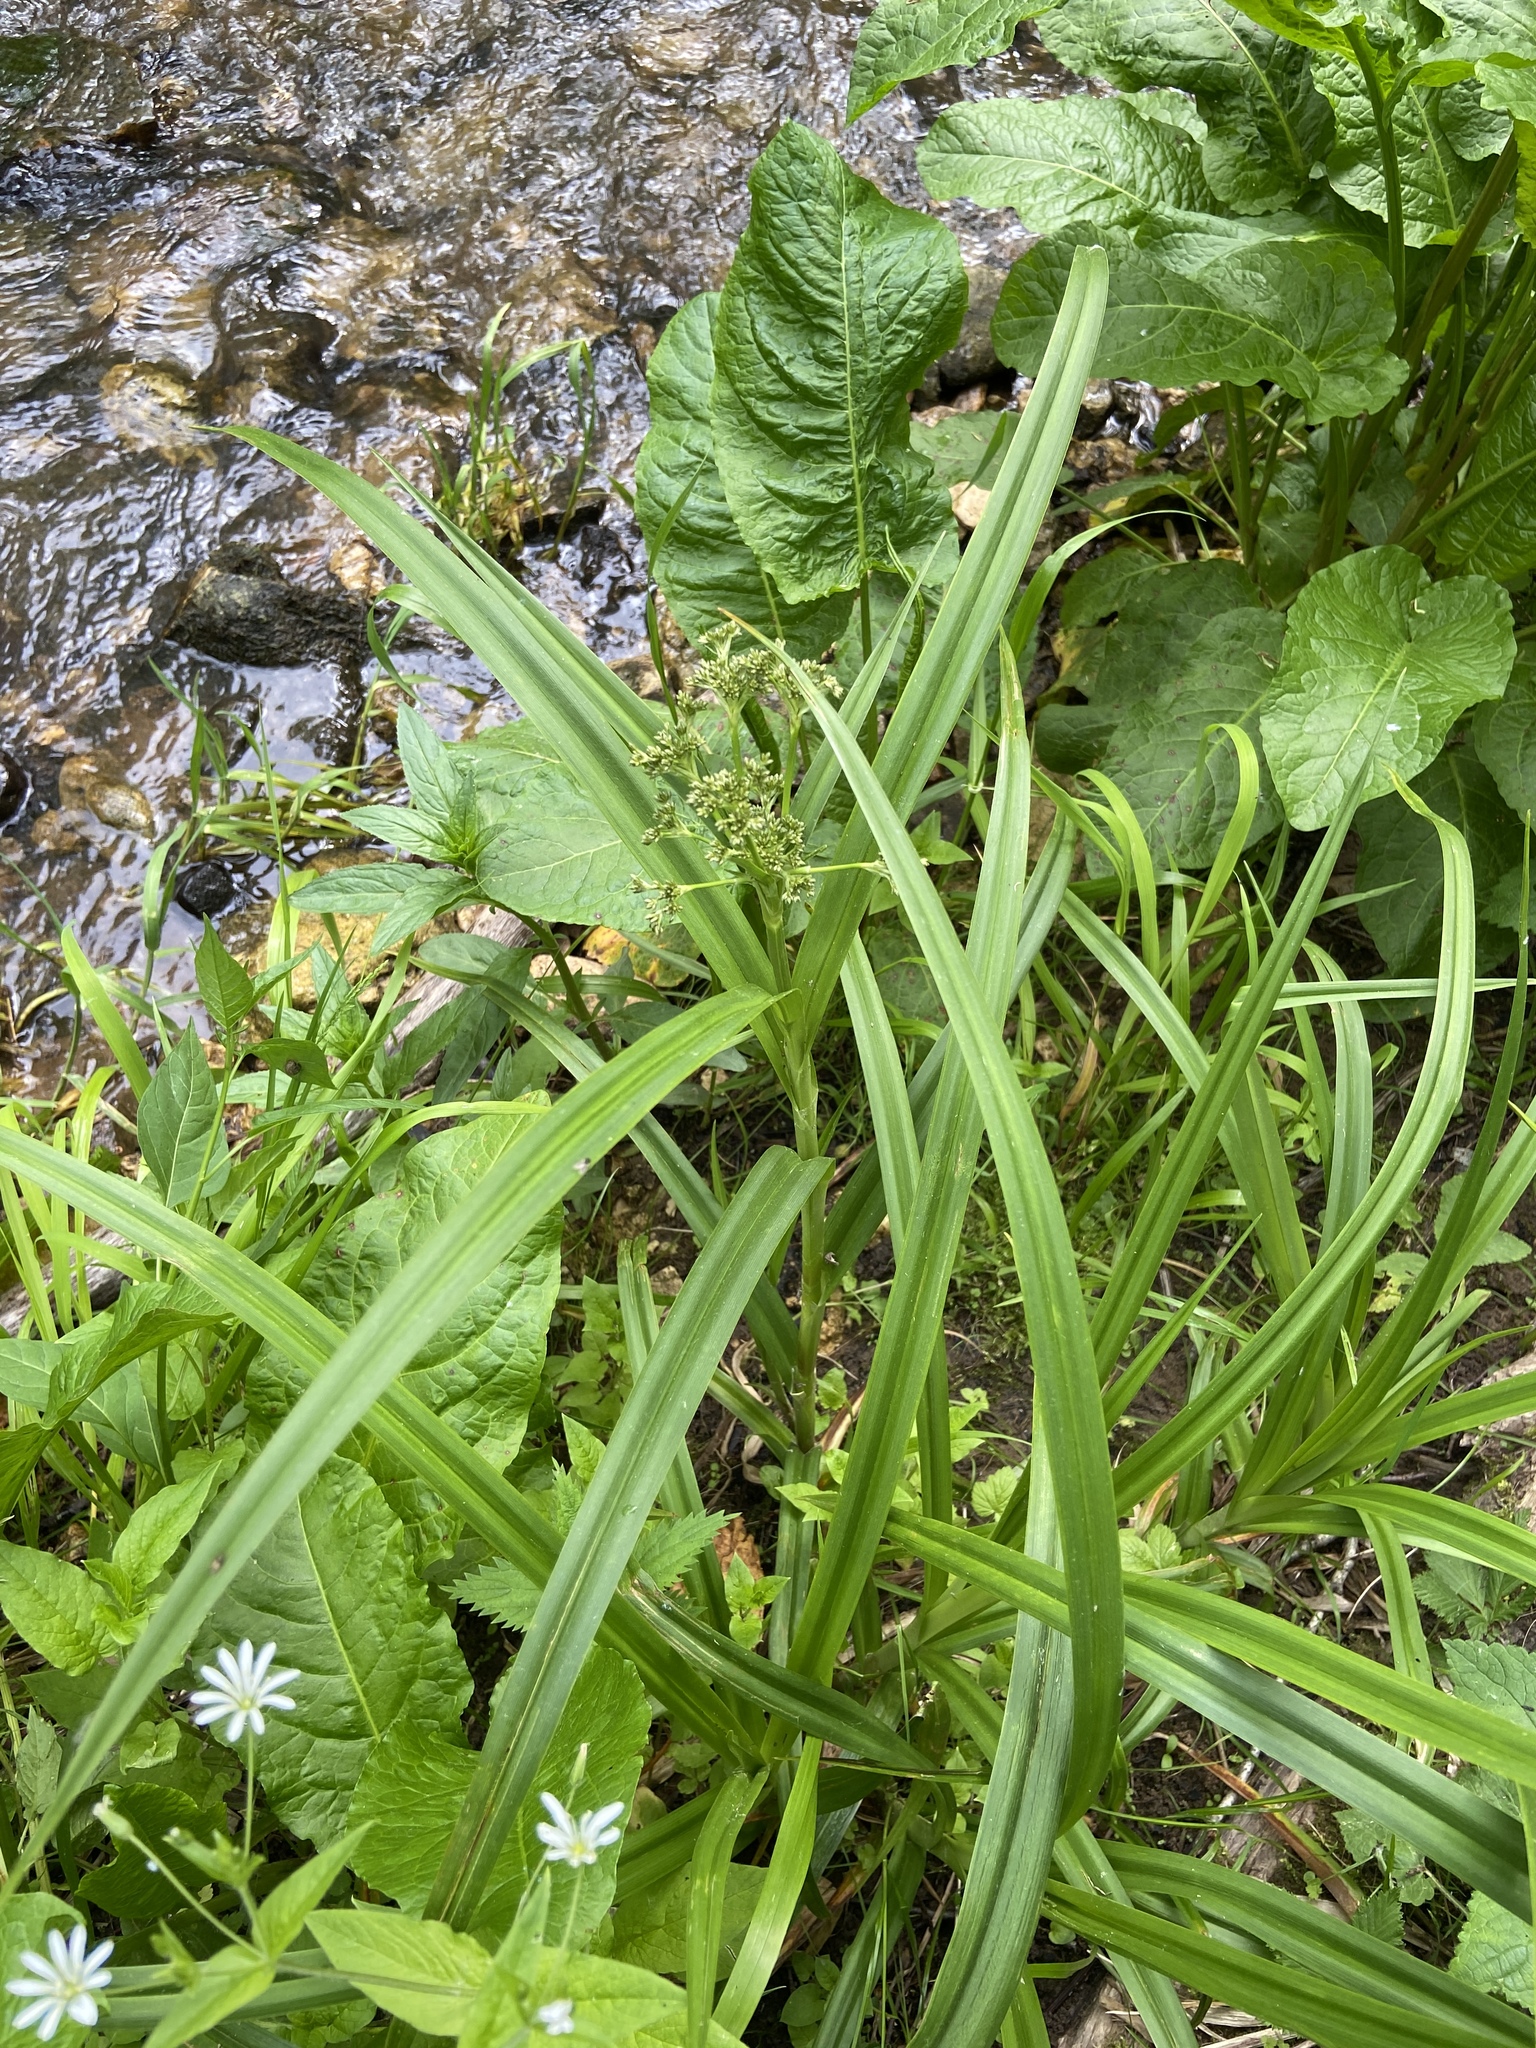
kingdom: Plantae
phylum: Tracheophyta
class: Liliopsida
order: Poales
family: Cyperaceae
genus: Scirpus
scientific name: Scirpus sylvaticus
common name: Wood club-rush
